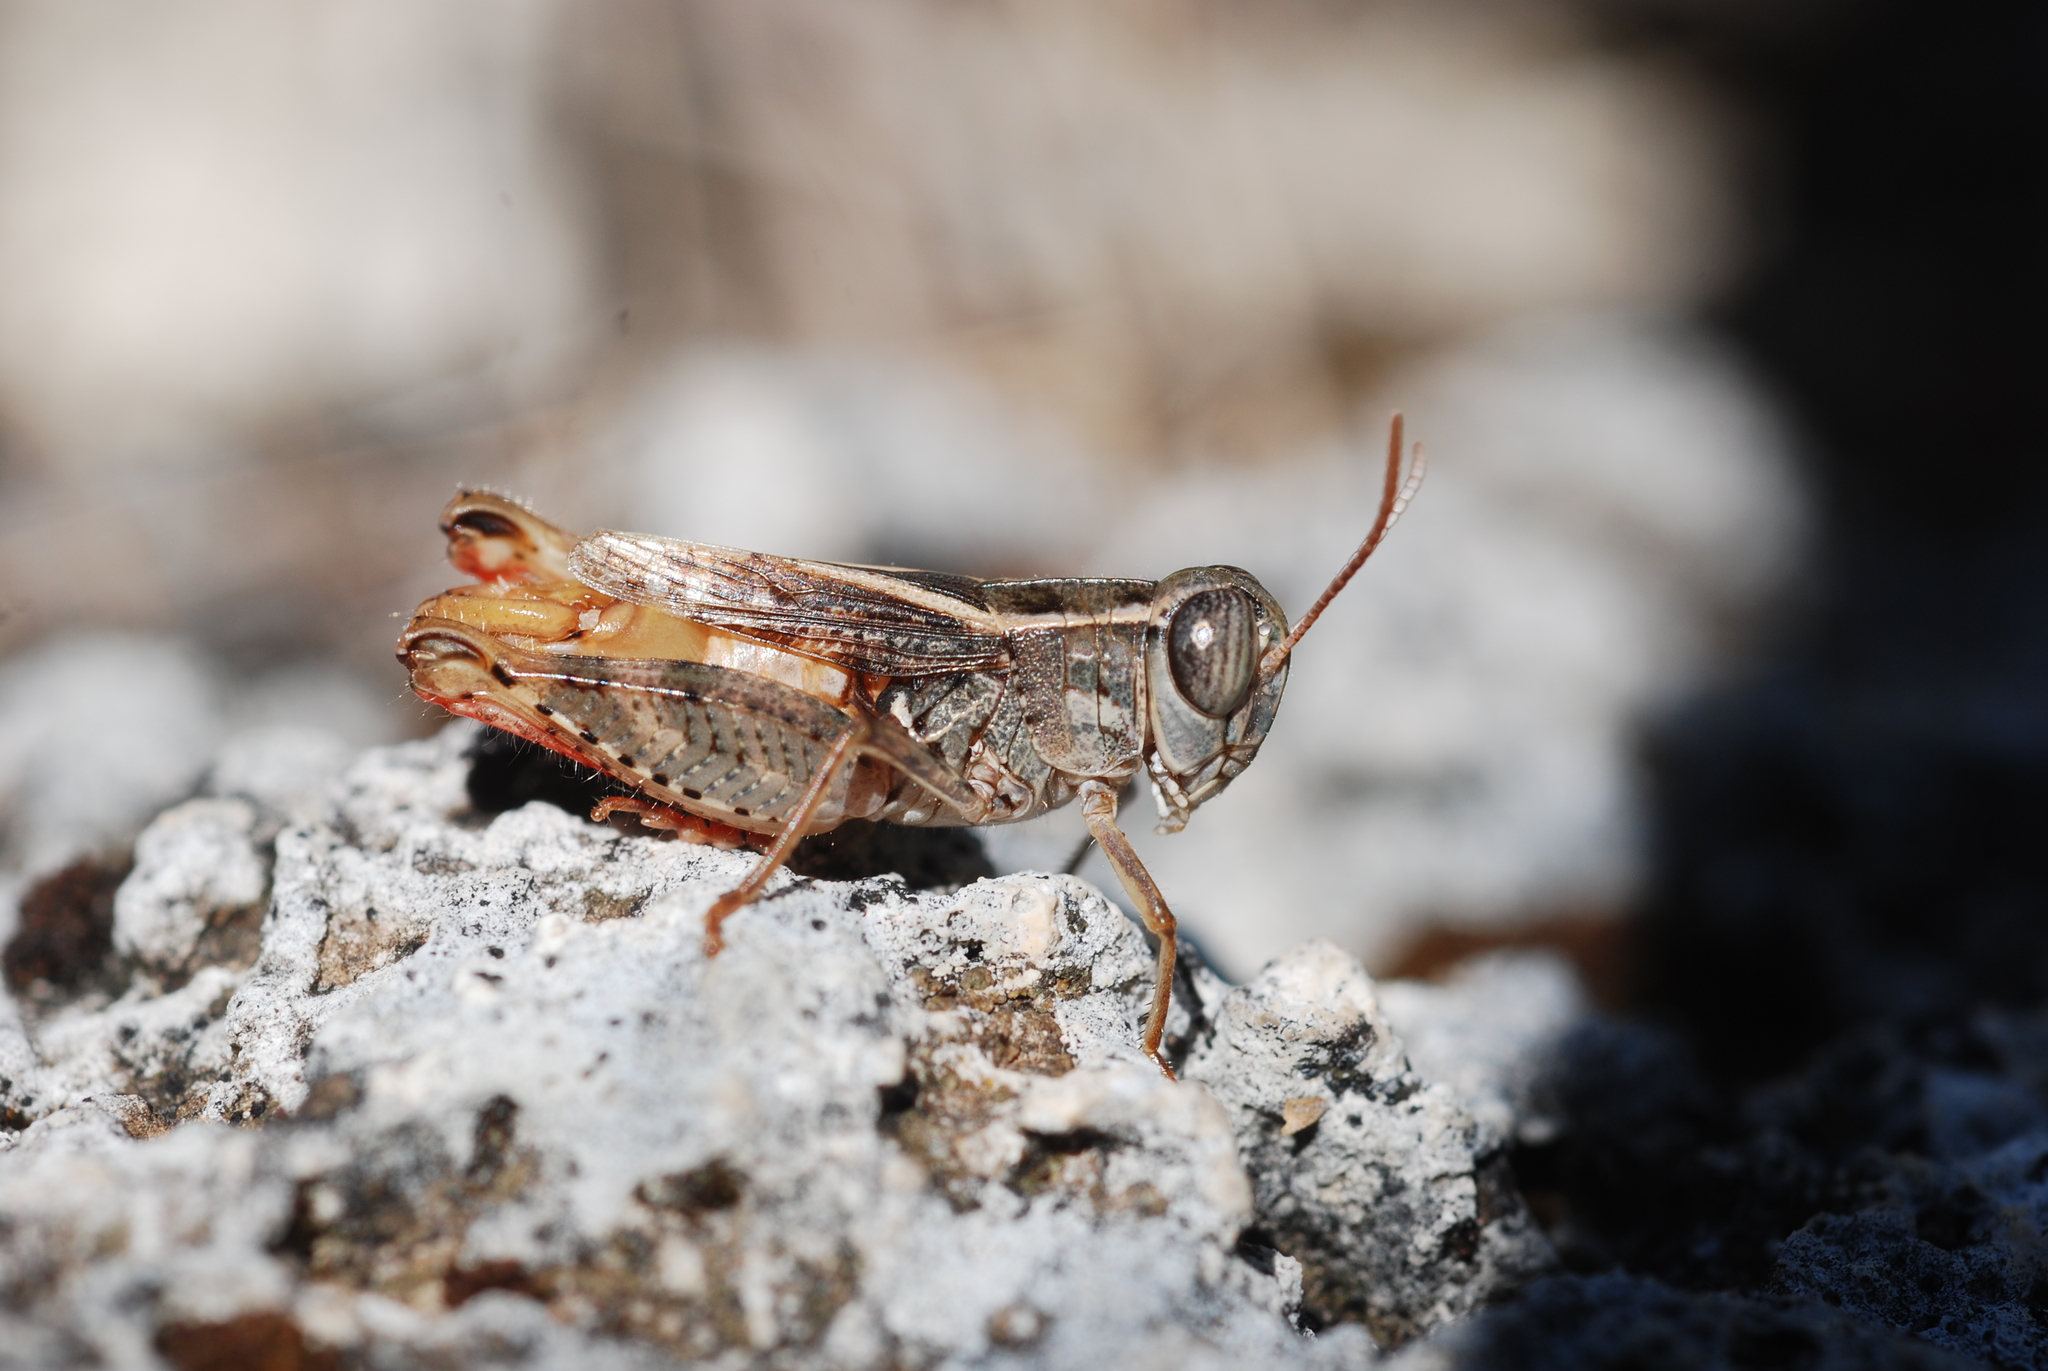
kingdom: Animalia
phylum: Arthropoda
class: Insecta
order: Orthoptera
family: Acrididae
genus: Calliptamus
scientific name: Calliptamus siciliae
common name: Pygmy pincer grasshopper
